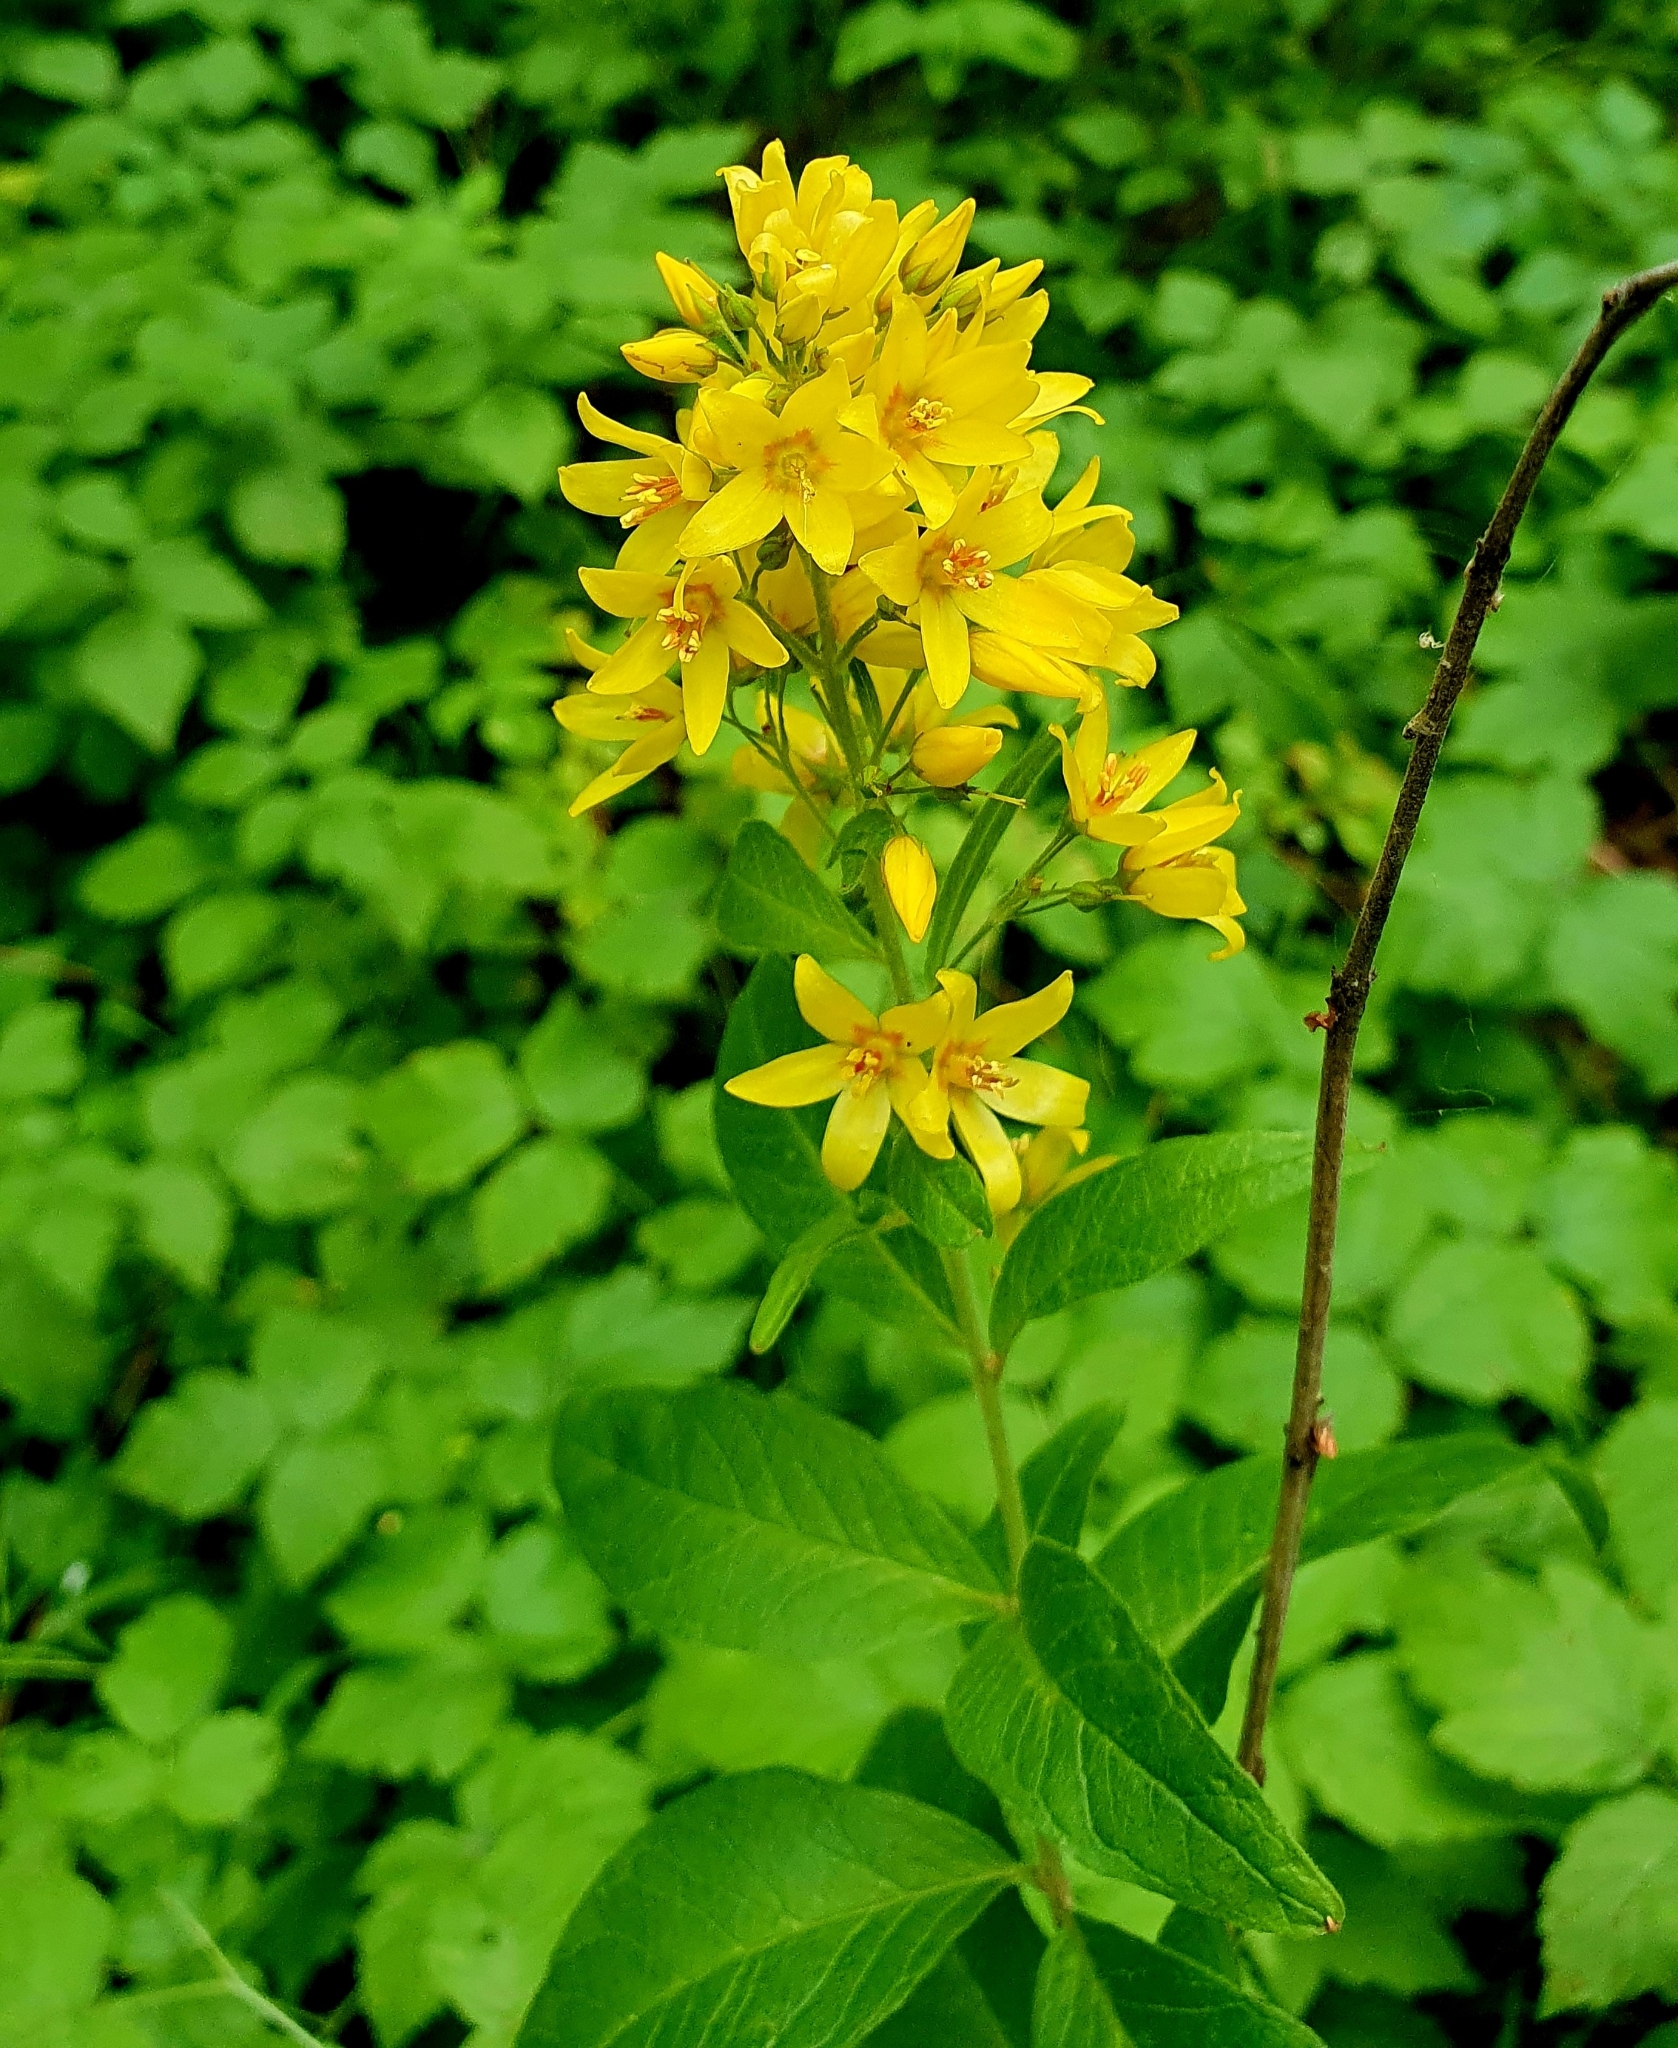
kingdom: Plantae
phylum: Tracheophyta
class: Magnoliopsida
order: Ericales
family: Primulaceae
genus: Lysimachia
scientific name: Lysimachia vulgaris
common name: Yellow loosestrife
